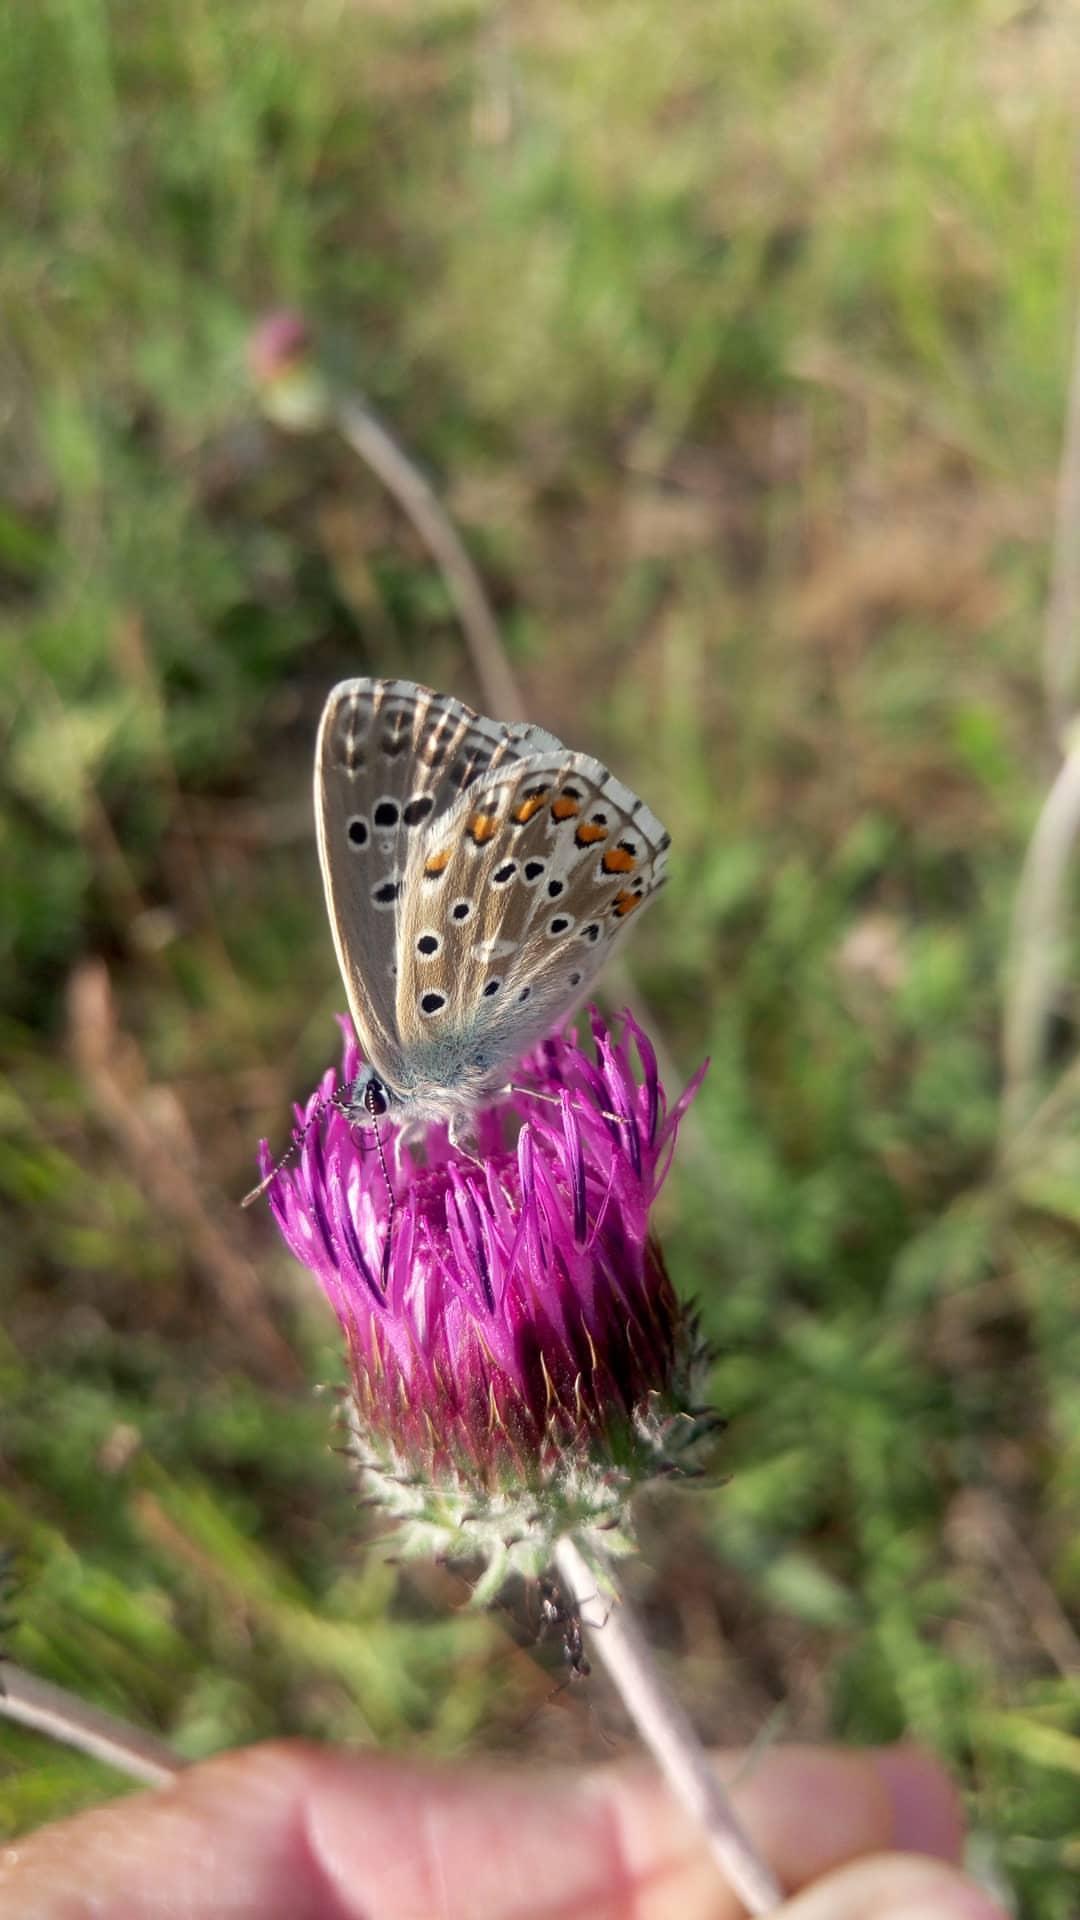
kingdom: Animalia
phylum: Arthropoda
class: Insecta
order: Lepidoptera
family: Lycaenidae
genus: Lysandra
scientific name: Lysandra bellargus
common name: Adonis blue
